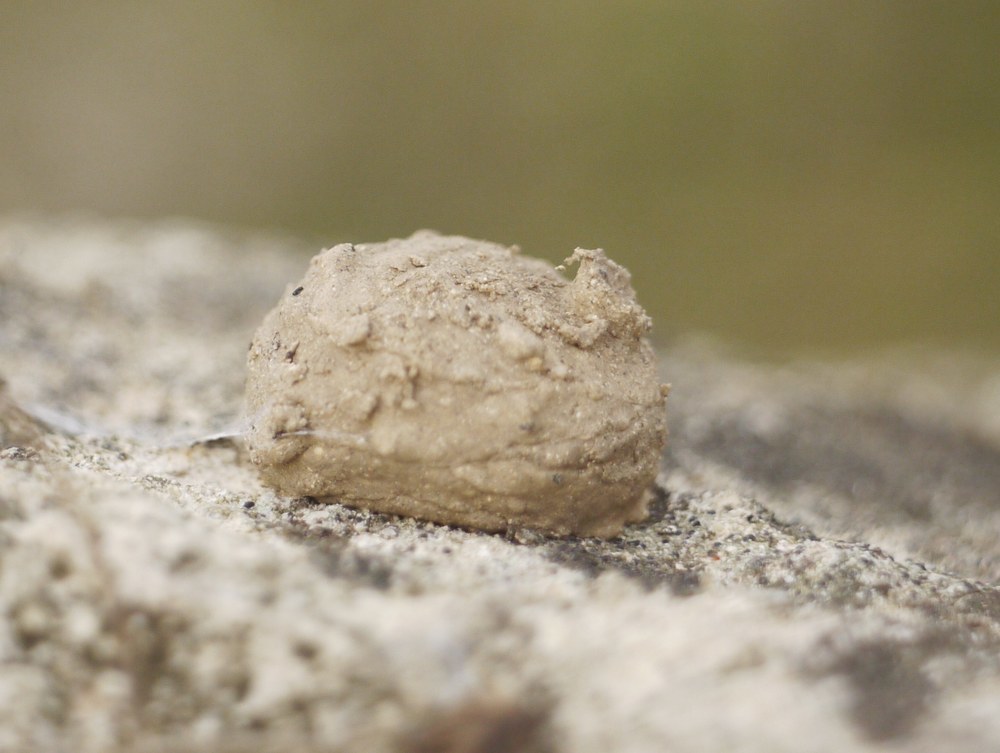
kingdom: Animalia
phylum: Arthropoda
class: Insecta
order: Hymenoptera
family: Eumenidae
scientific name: Eumenidae
